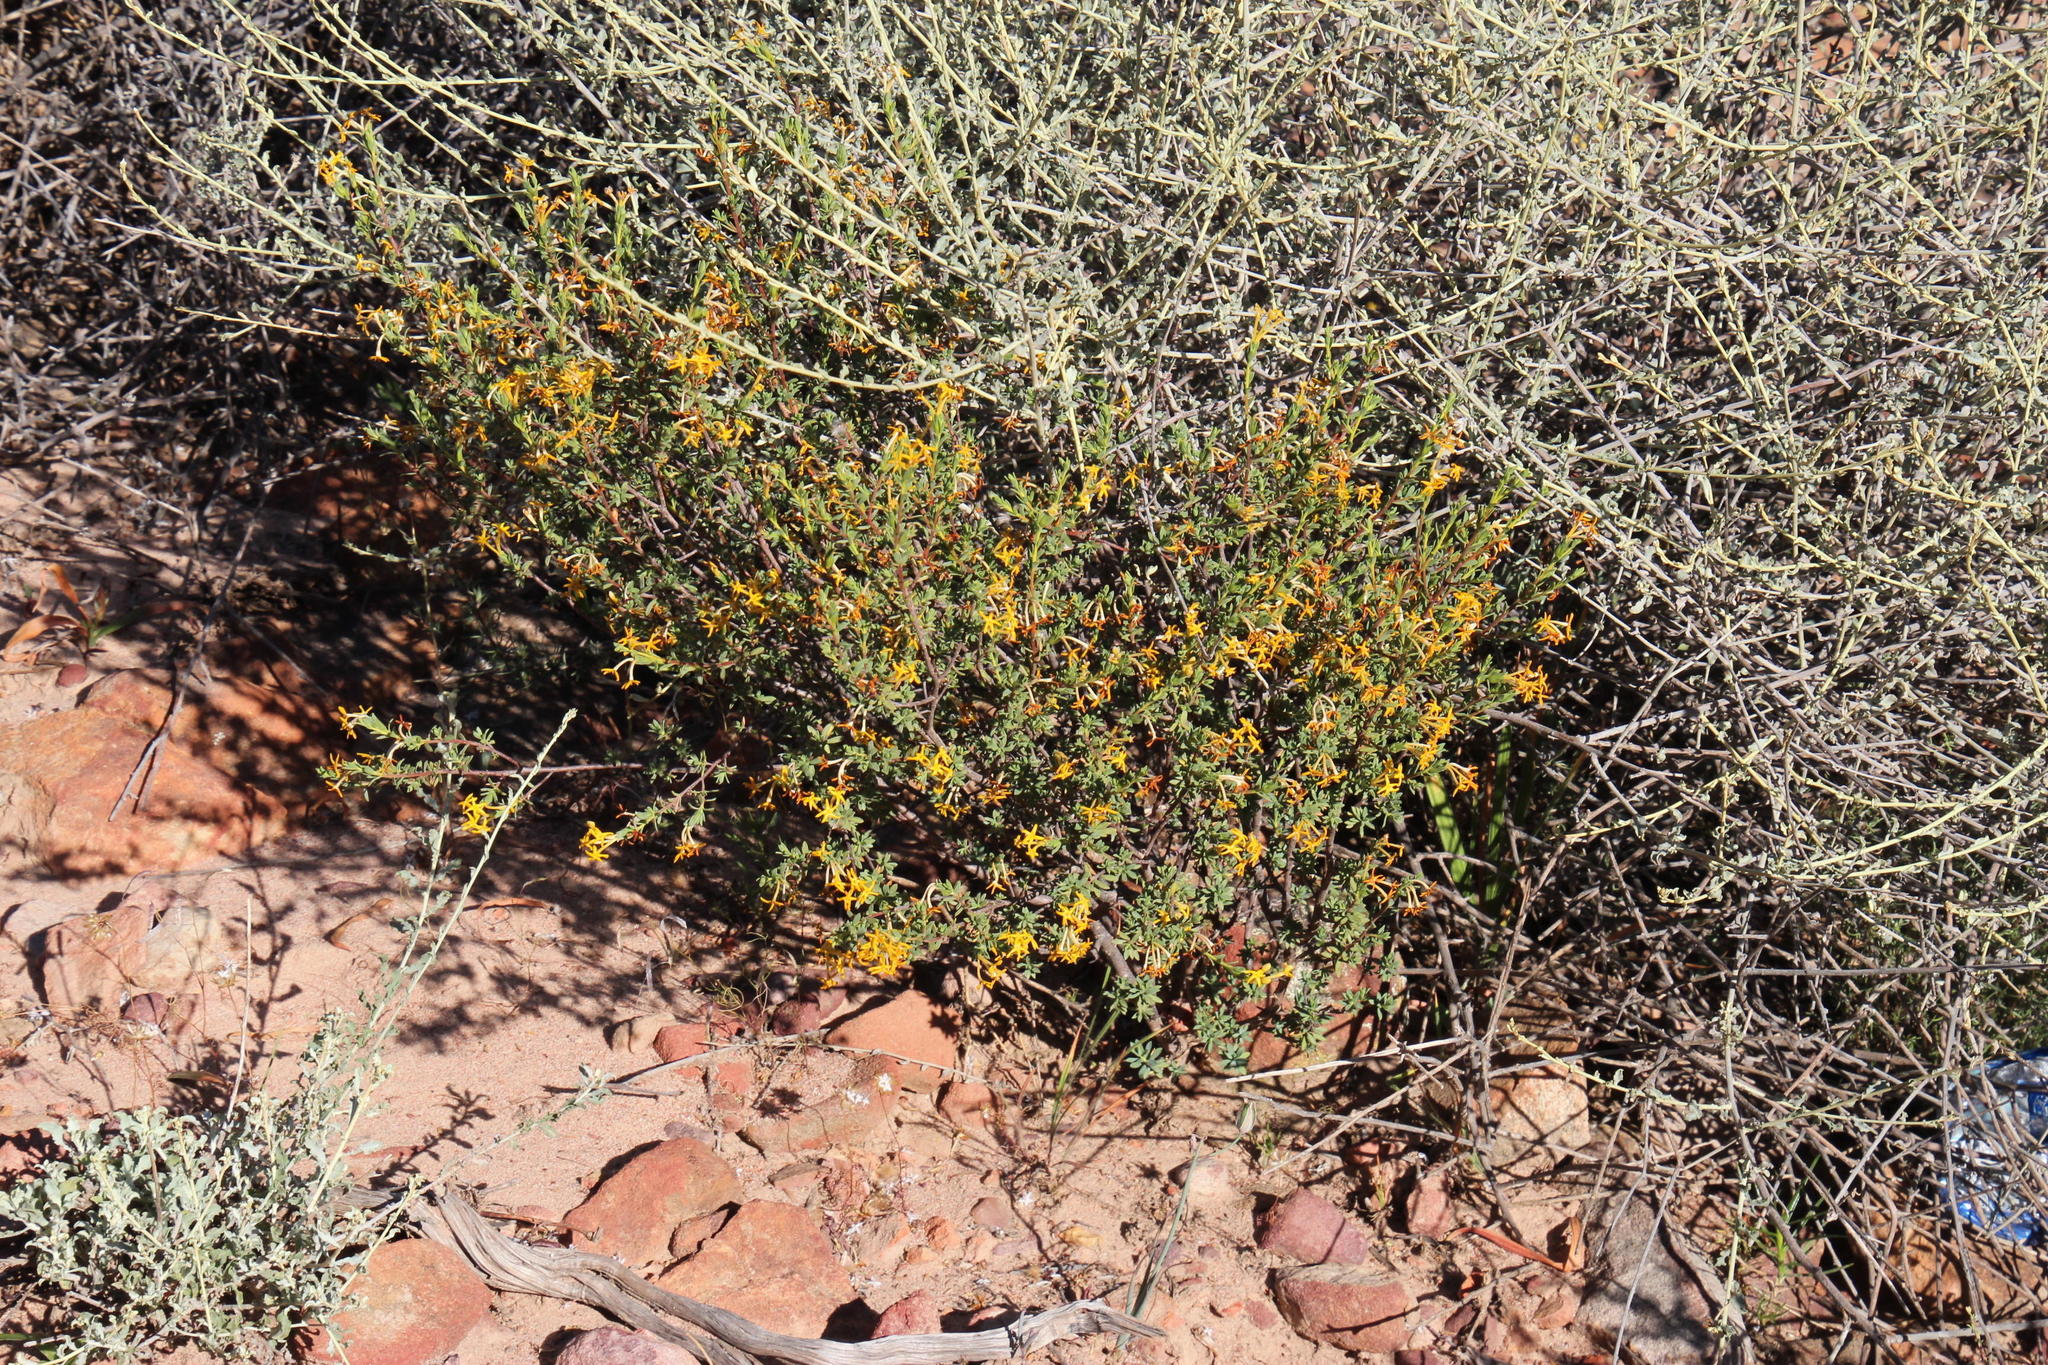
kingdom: Plantae
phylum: Tracheophyta
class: Magnoliopsida
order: Malvales
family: Thymelaeaceae
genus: Gnidia
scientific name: Gnidia deserticola
